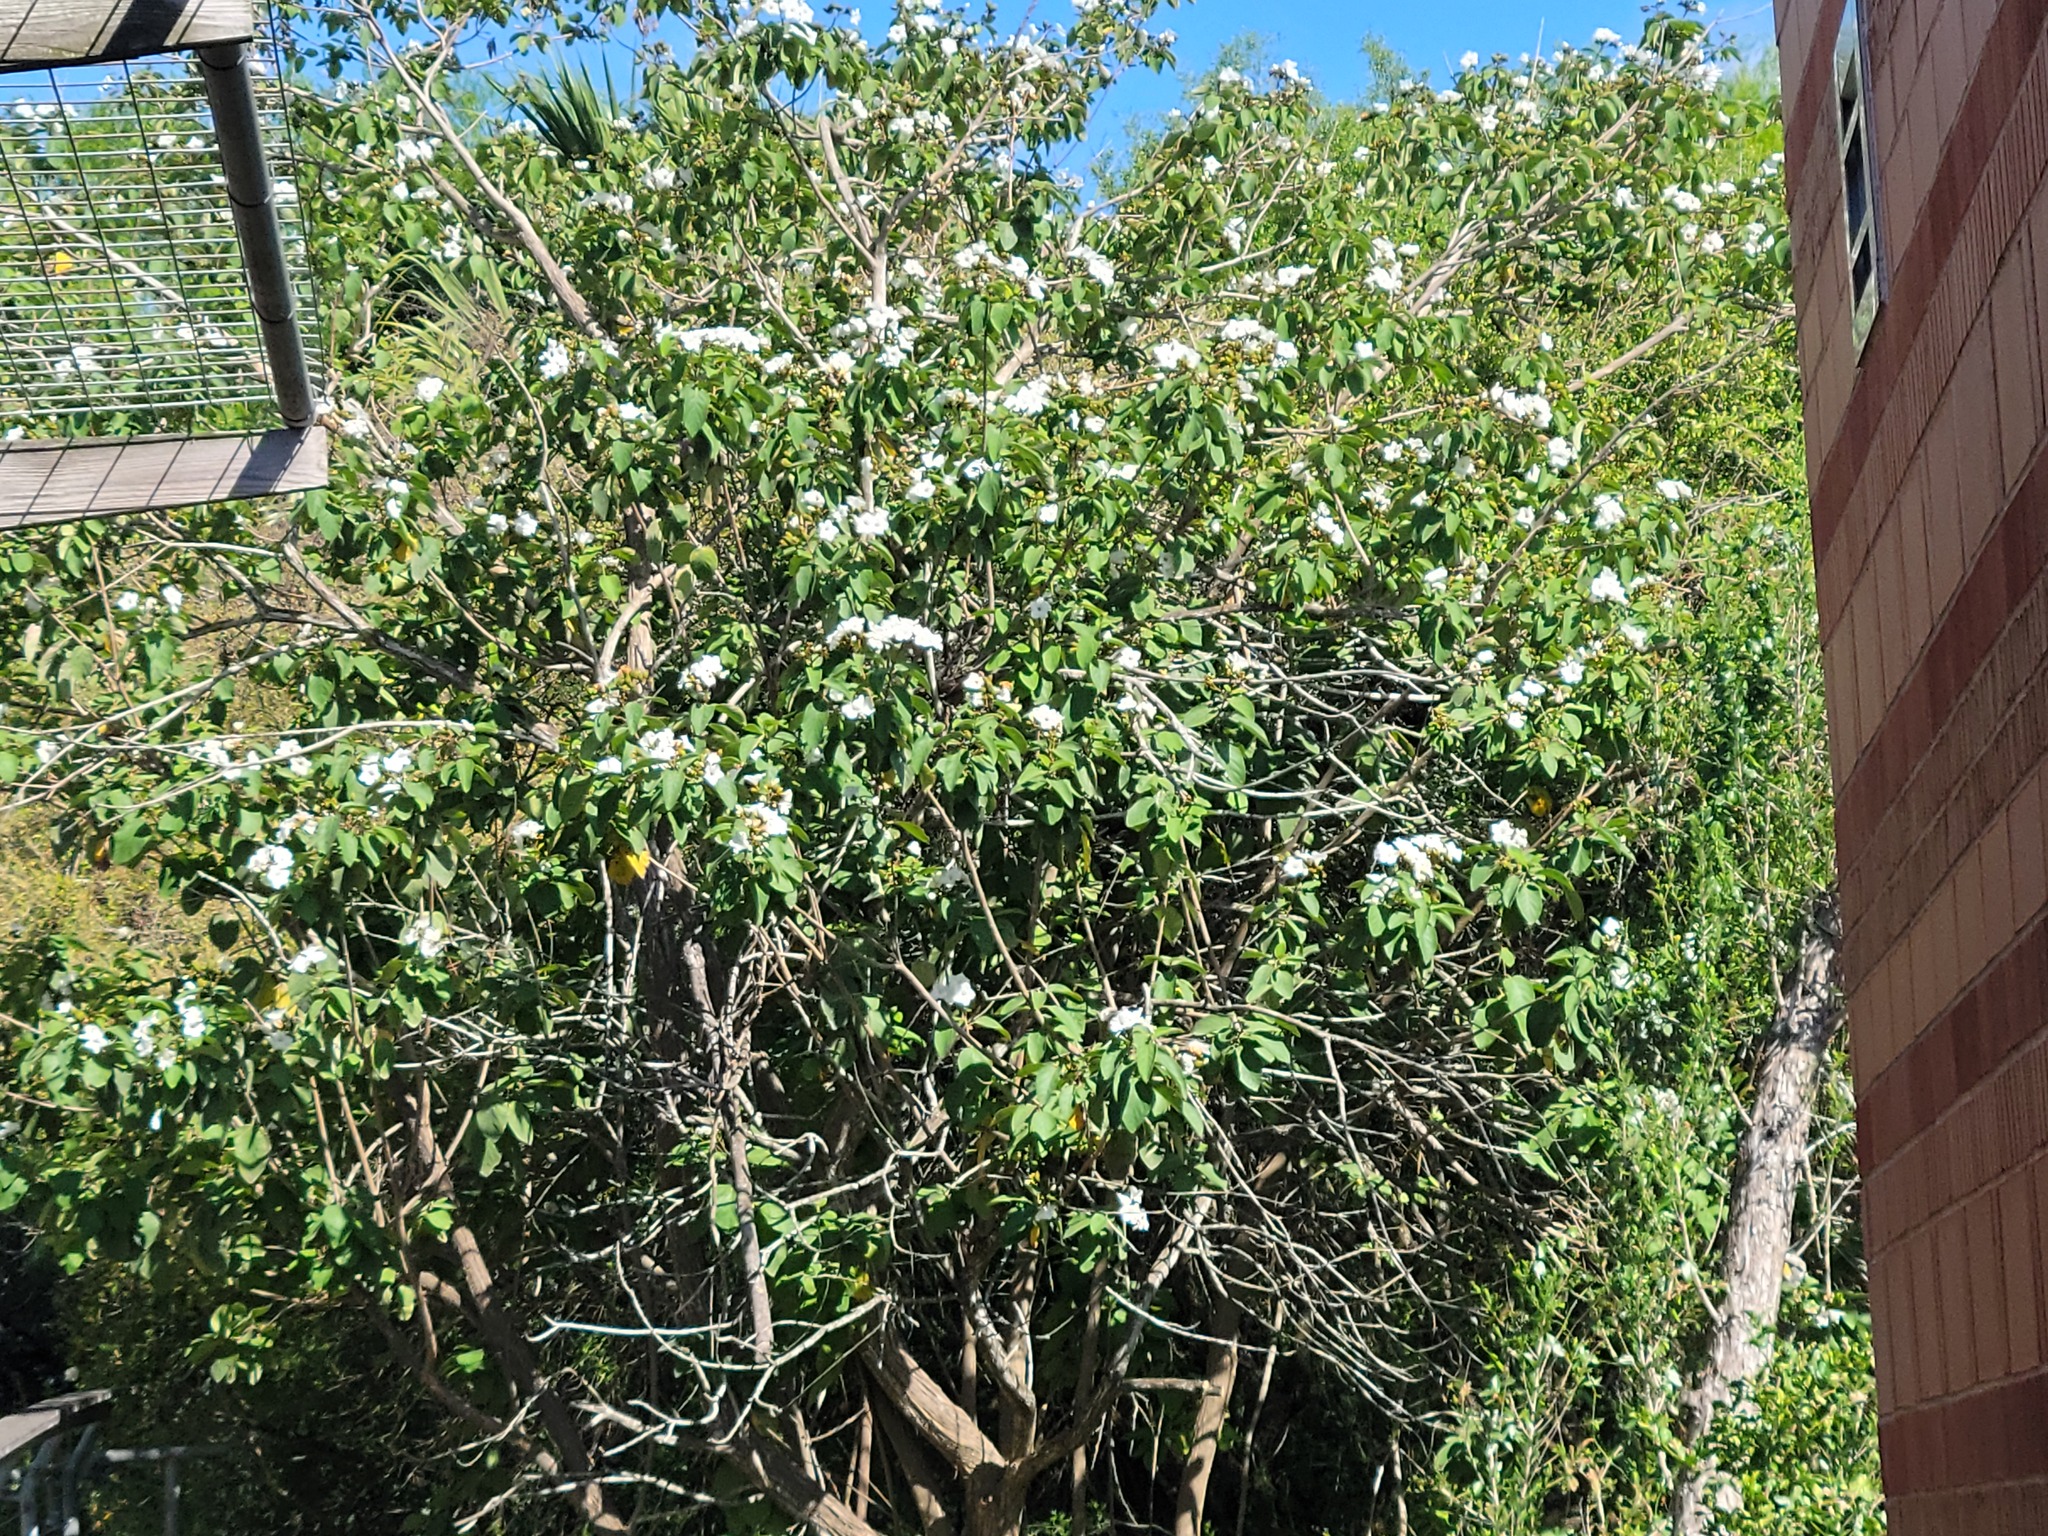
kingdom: Plantae
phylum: Tracheophyta
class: Magnoliopsida
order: Boraginales
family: Cordiaceae
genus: Cordia
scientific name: Cordia boissieri
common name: Mexican-olive
